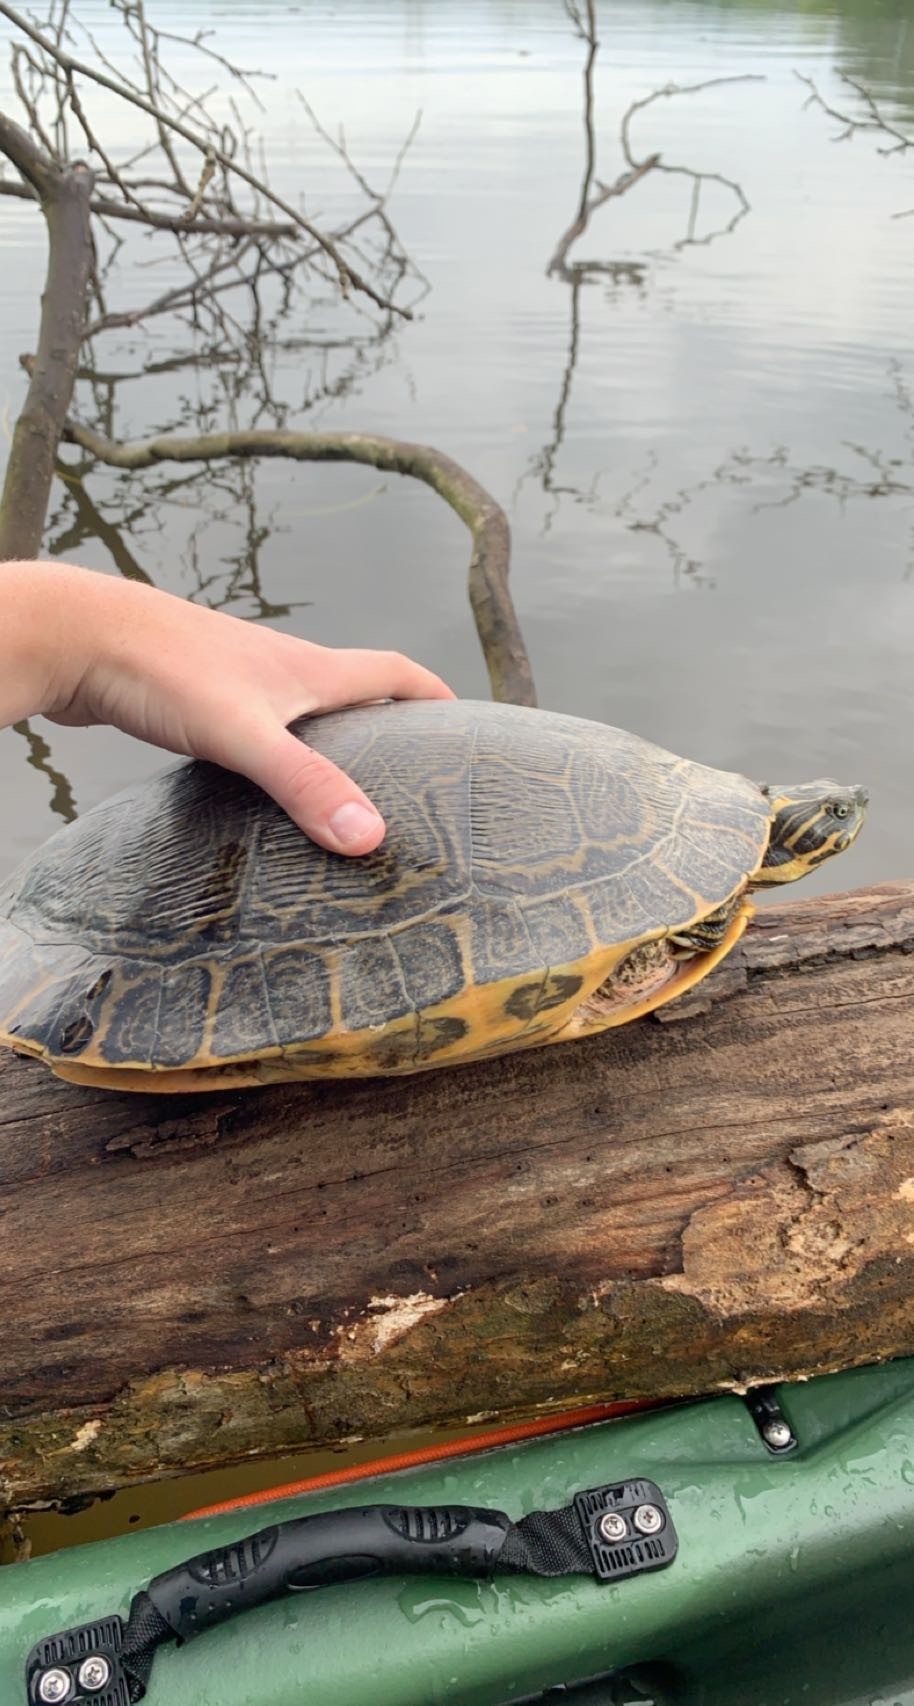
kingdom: Animalia
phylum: Chordata
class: Testudines
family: Emydidae
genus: Pseudemys
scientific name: Pseudemys concinna
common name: Eastern river cooter
